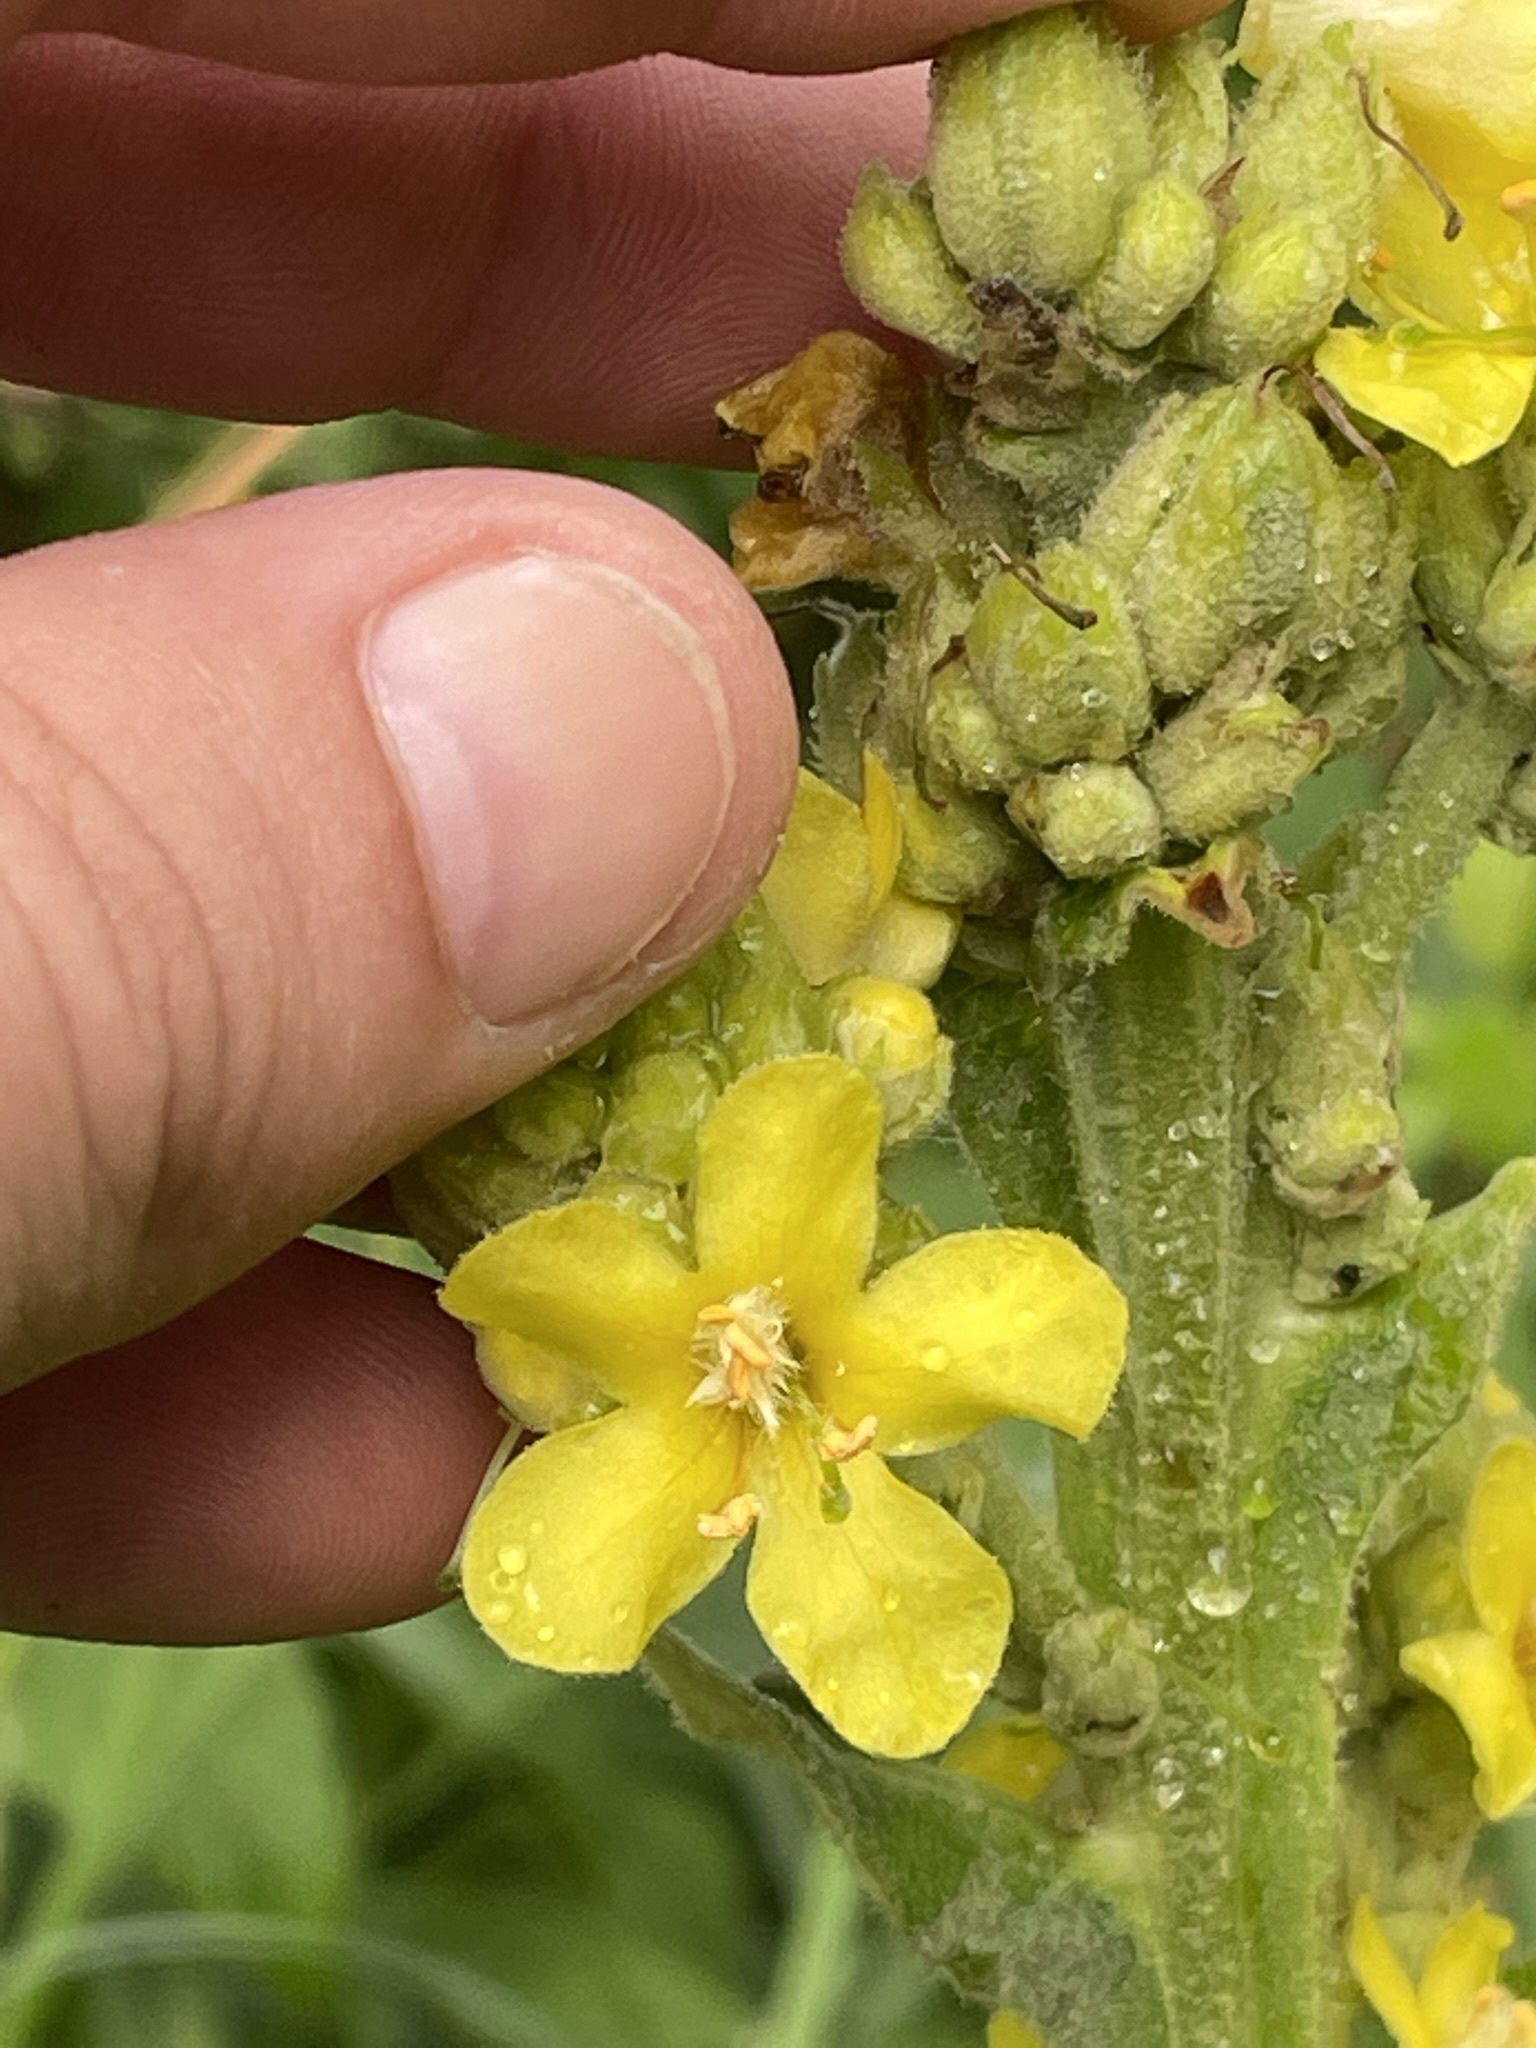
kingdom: Plantae
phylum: Tracheophyta
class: Magnoliopsida
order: Lamiales
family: Scrophulariaceae
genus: Verbascum
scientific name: Verbascum thapsus
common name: Common mullein
